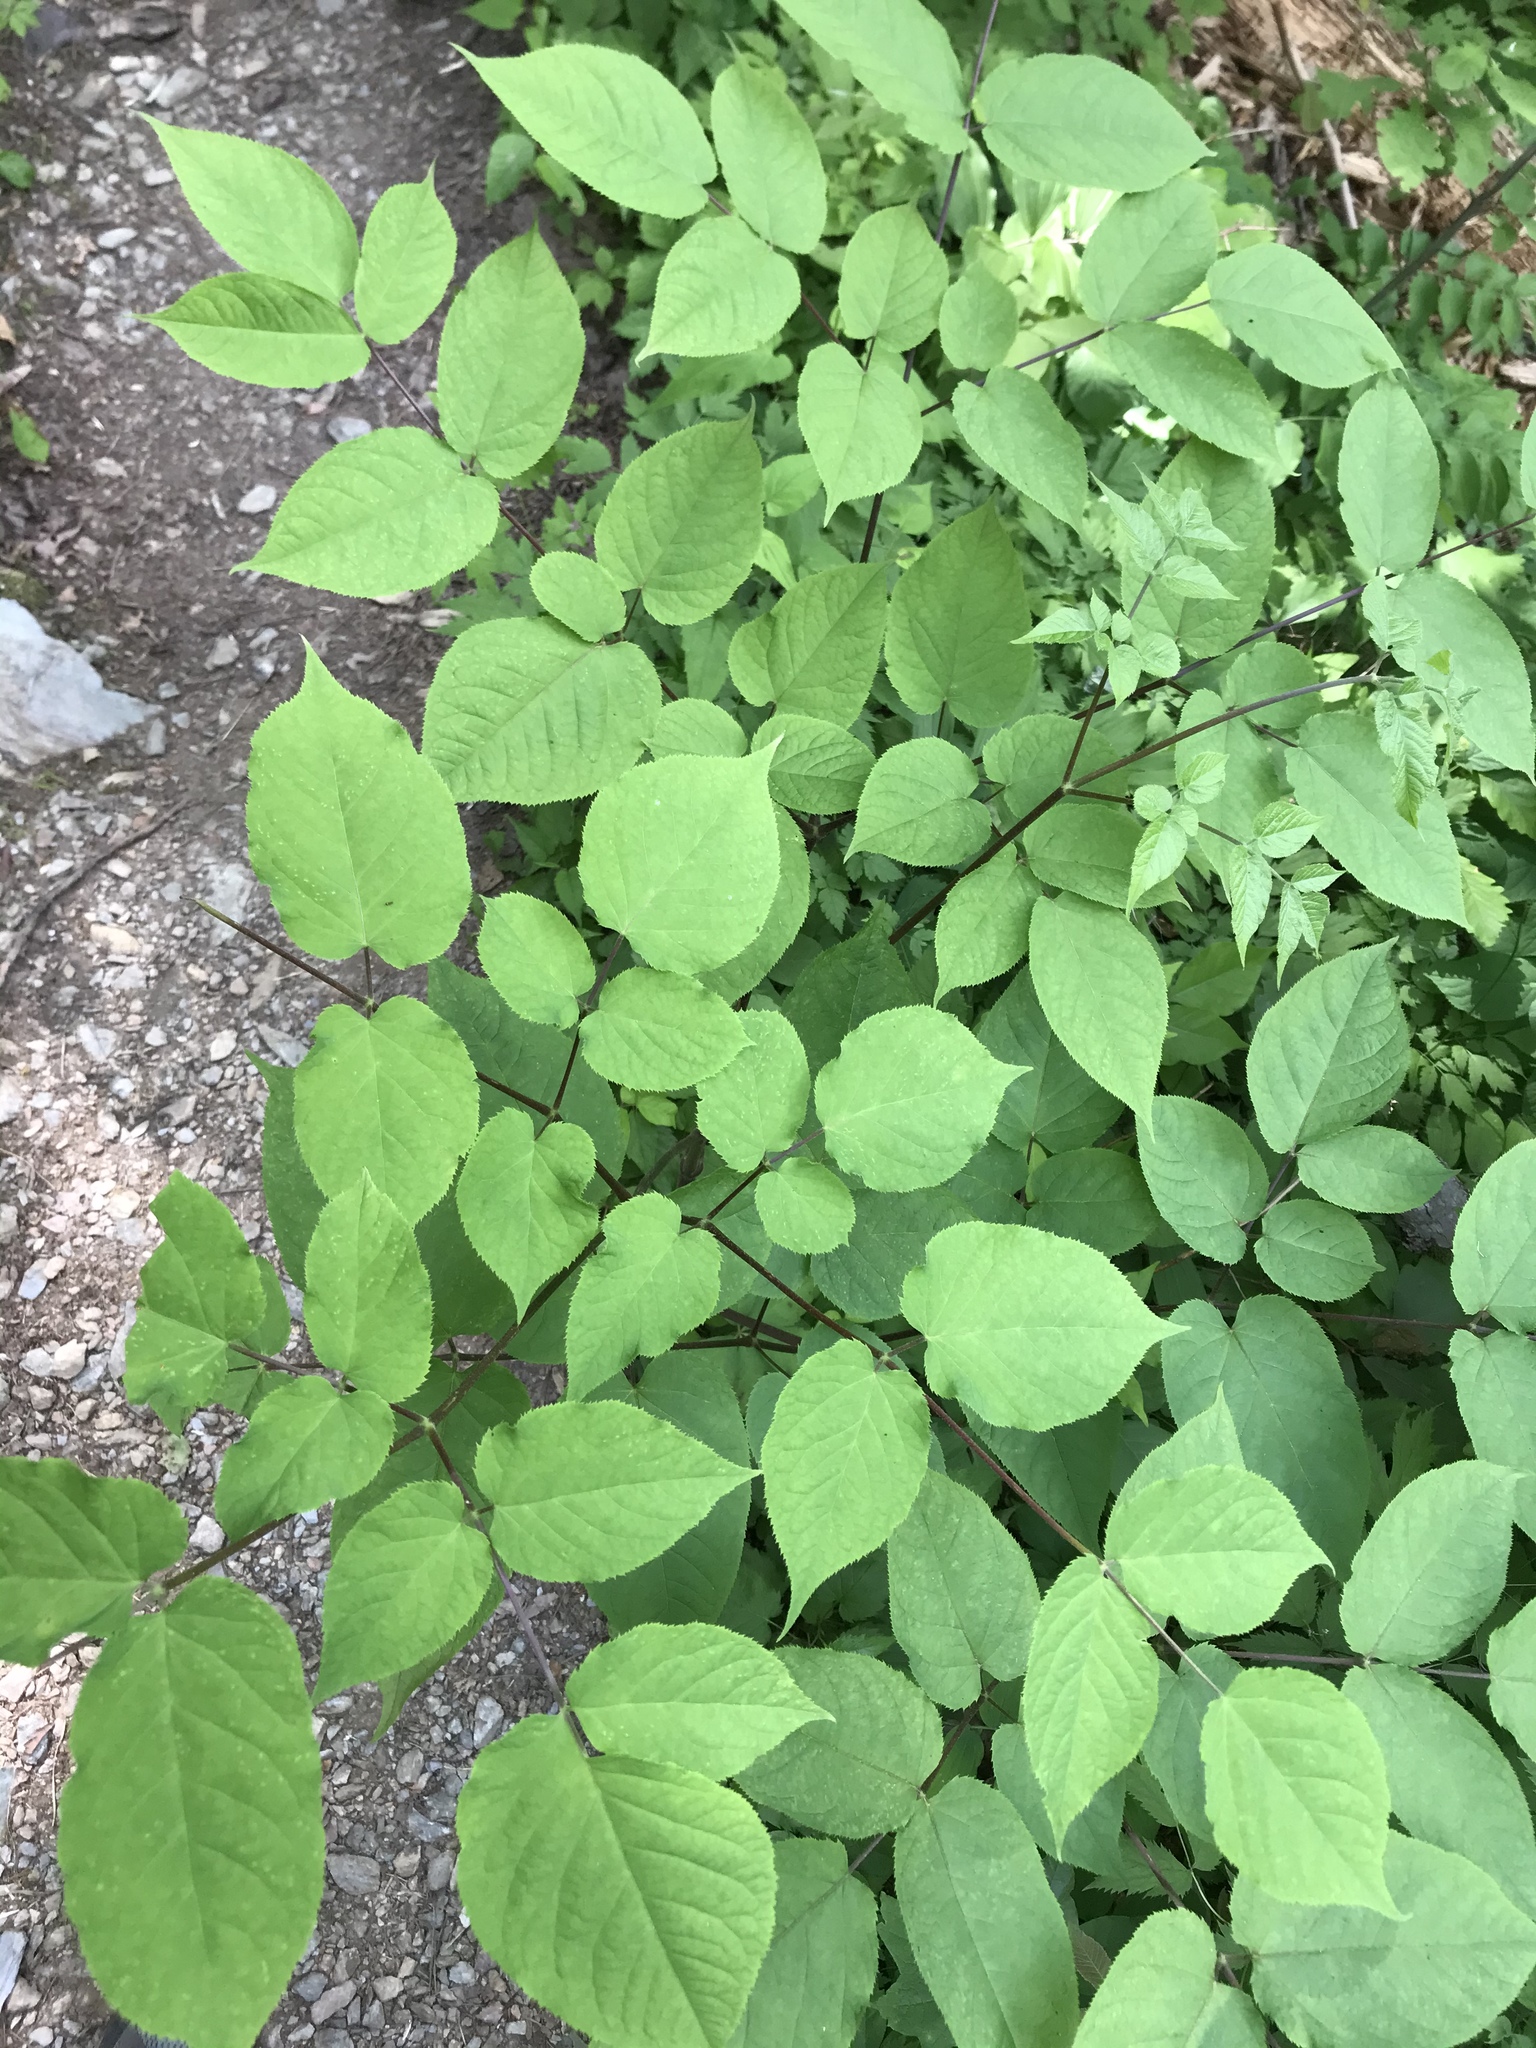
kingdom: Plantae
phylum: Tracheophyta
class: Magnoliopsida
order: Apiales
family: Araliaceae
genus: Aralia
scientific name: Aralia racemosa
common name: American-spikenard
